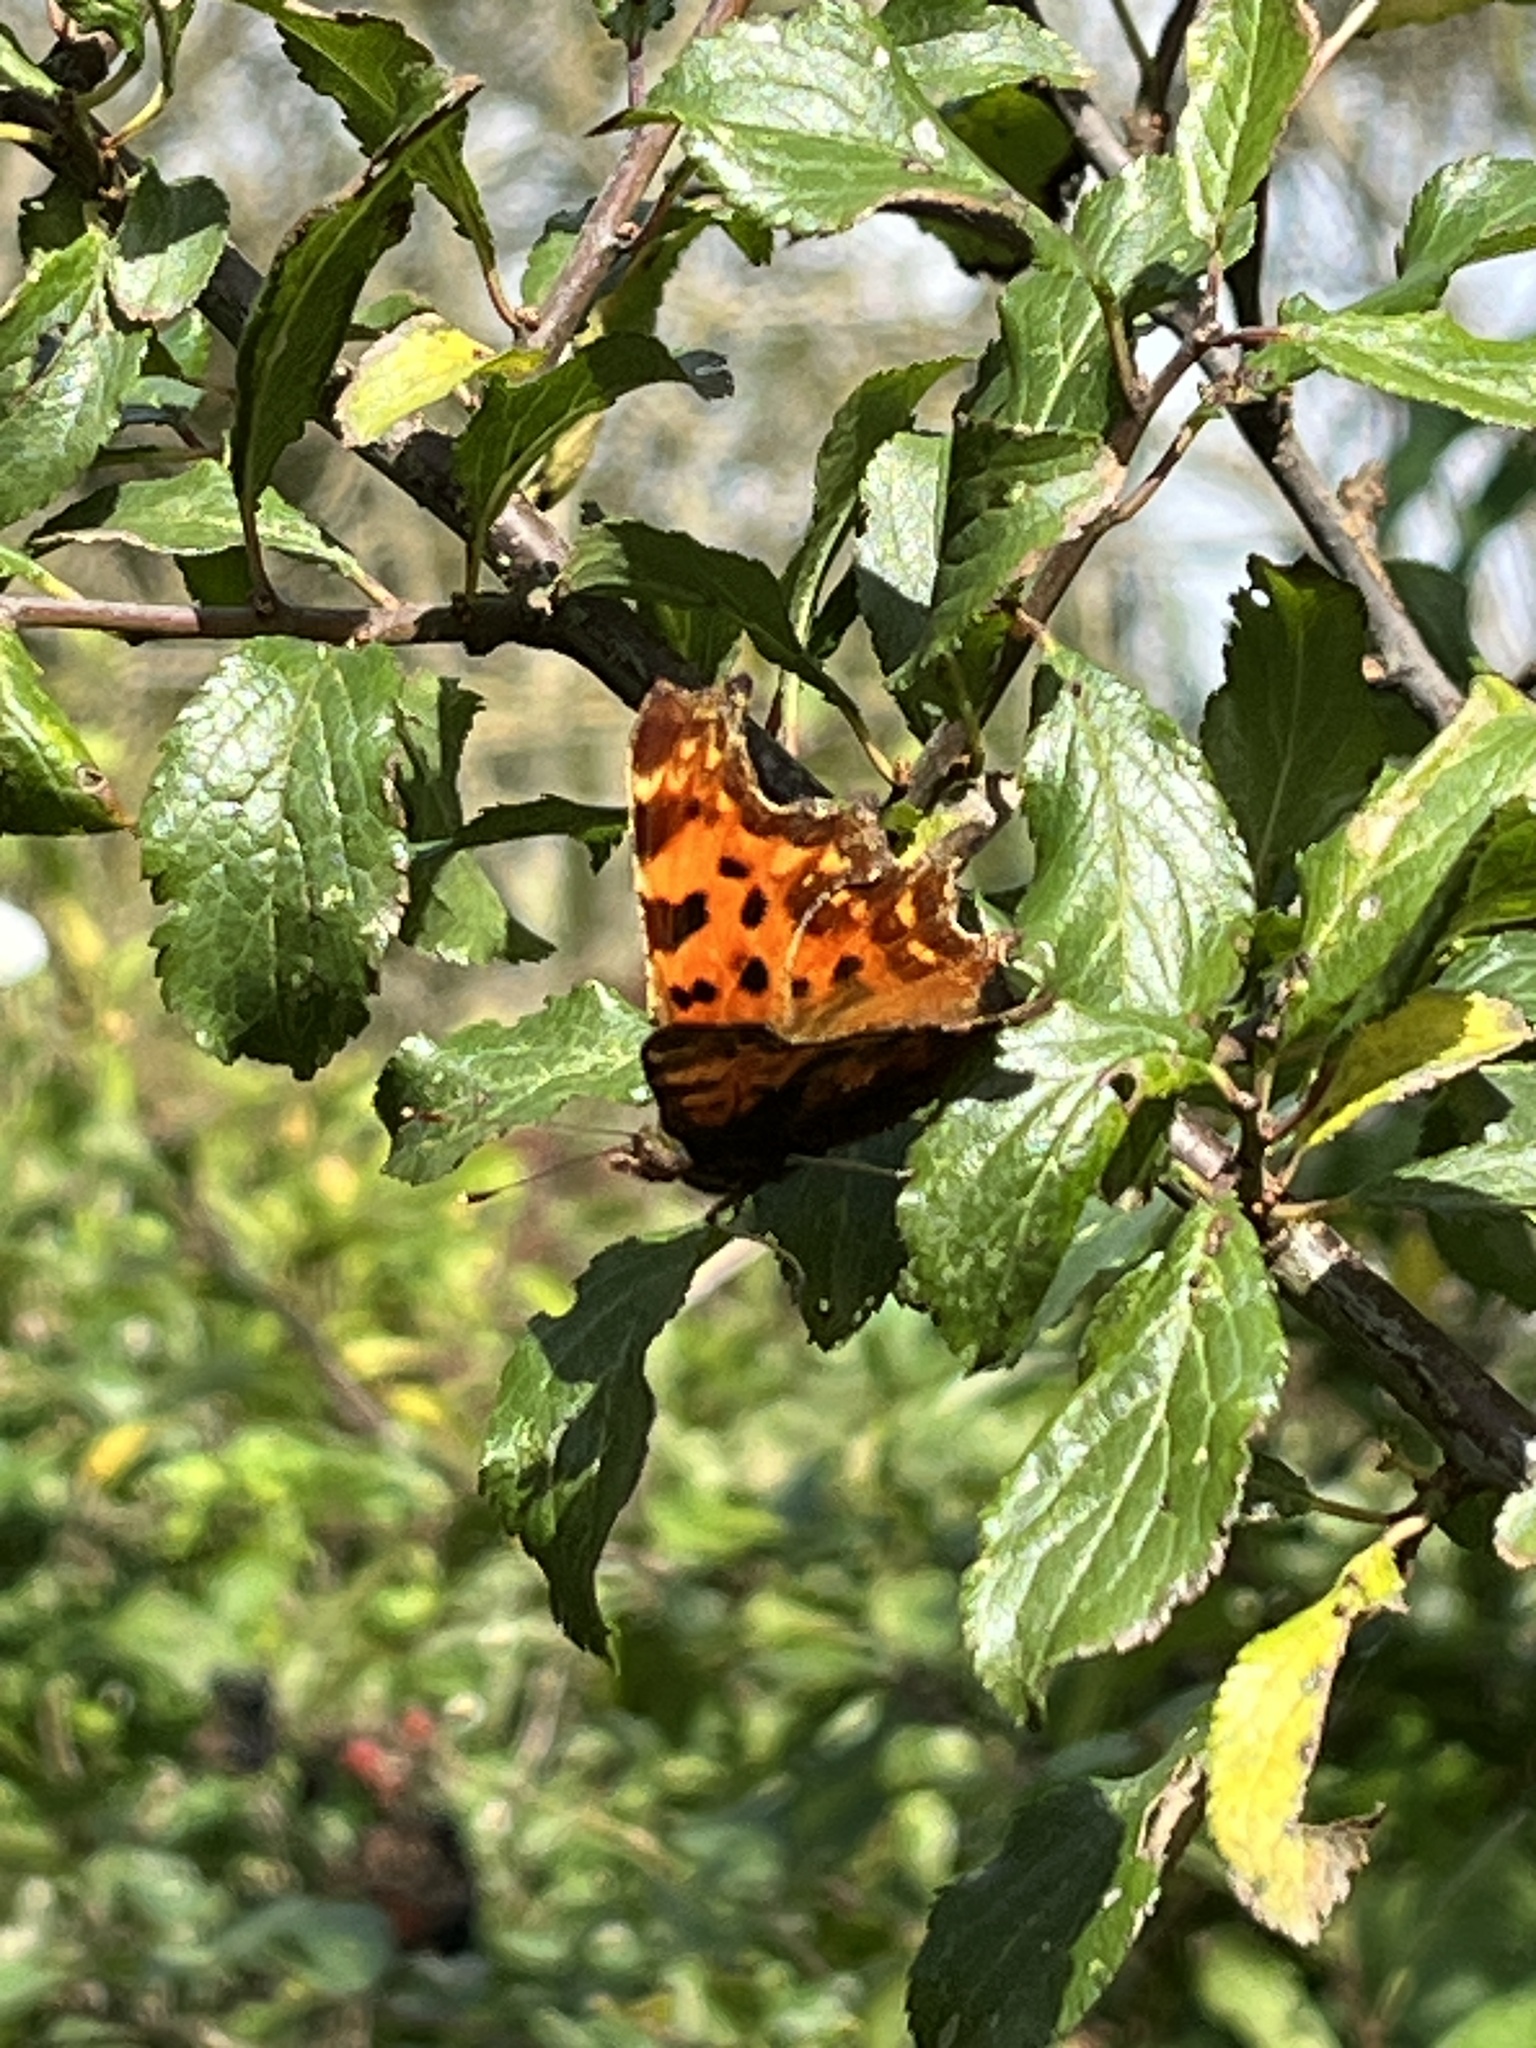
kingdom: Animalia
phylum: Arthropoda
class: Insecta
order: Lepidoptera
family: Nymphalidae
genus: Polygonia
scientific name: Polygonia c-album
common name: Comma
